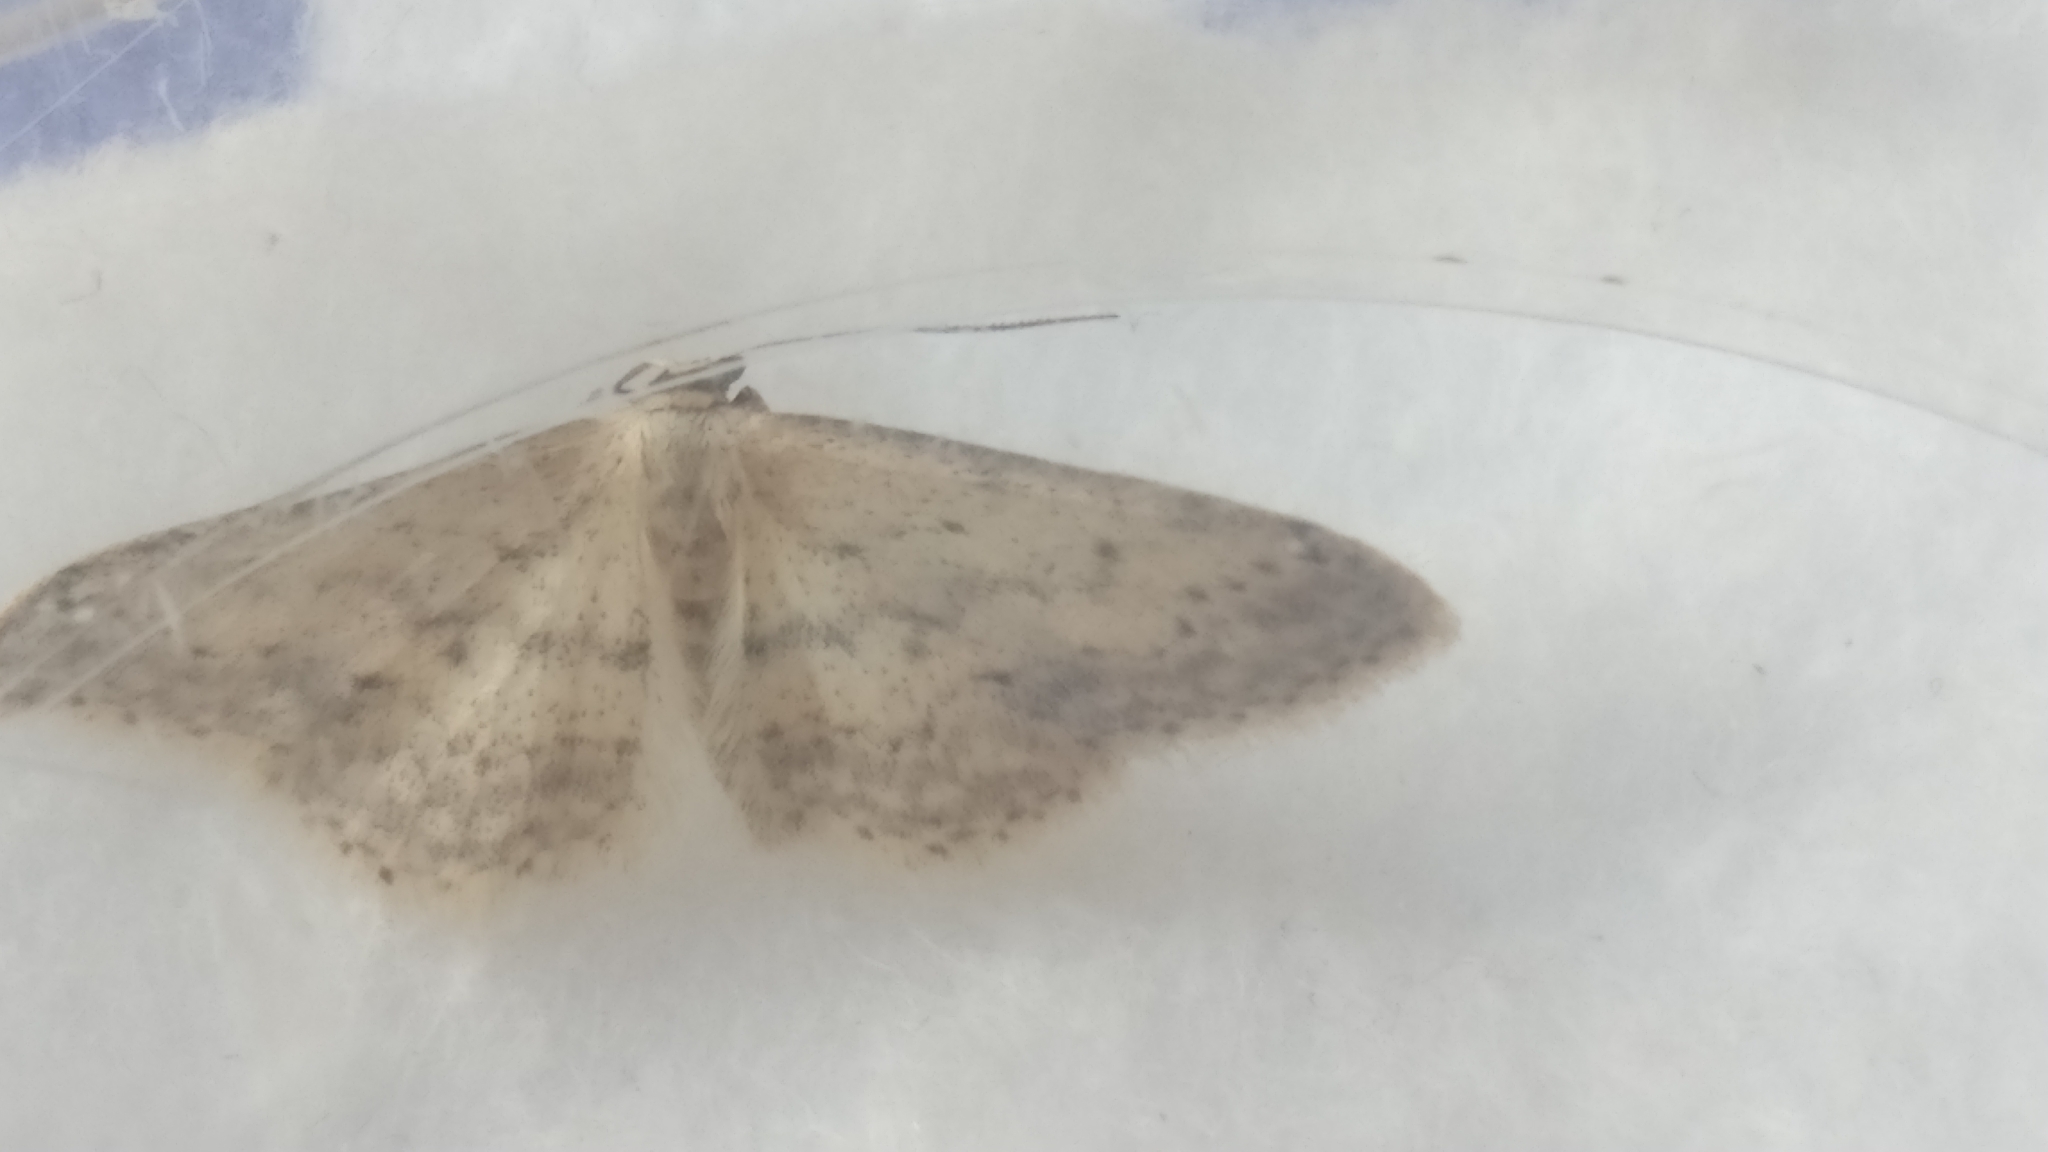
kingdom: Animalia
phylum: Arthropoda
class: Insecta
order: Lepidoptera
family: Geometridae
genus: Idaea
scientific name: Idaea seriata
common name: Small dusty wave
